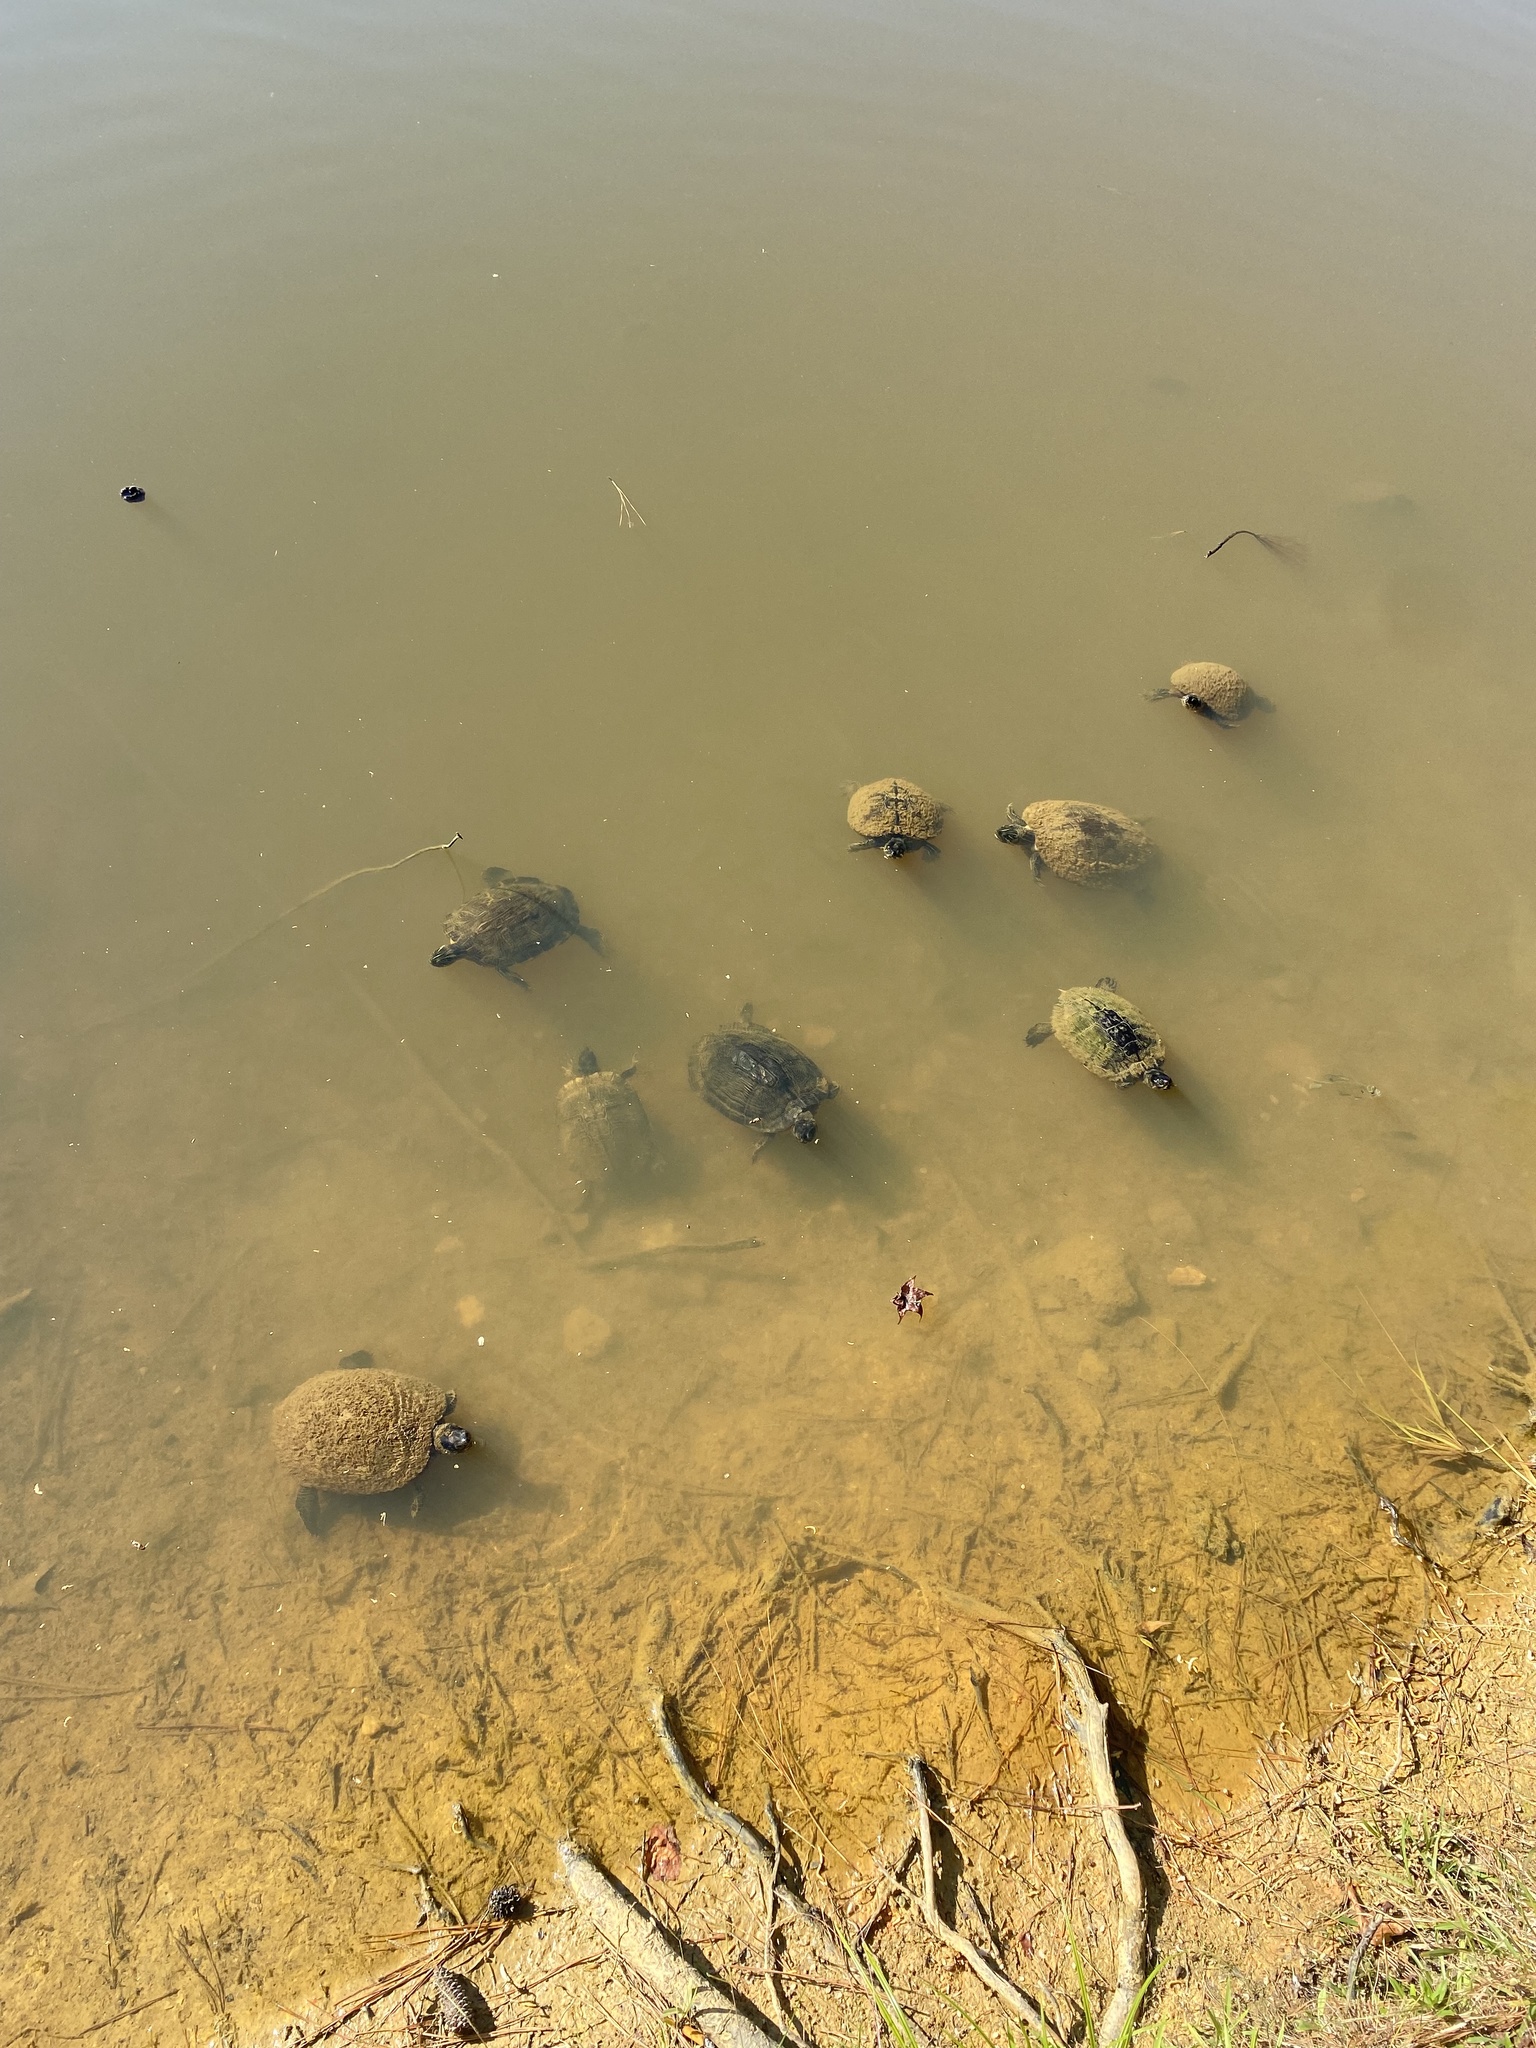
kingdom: Animalia
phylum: Chordata
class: Testudines
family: Emydidae
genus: Trachemys
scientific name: Trachemys scripta
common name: Slider
